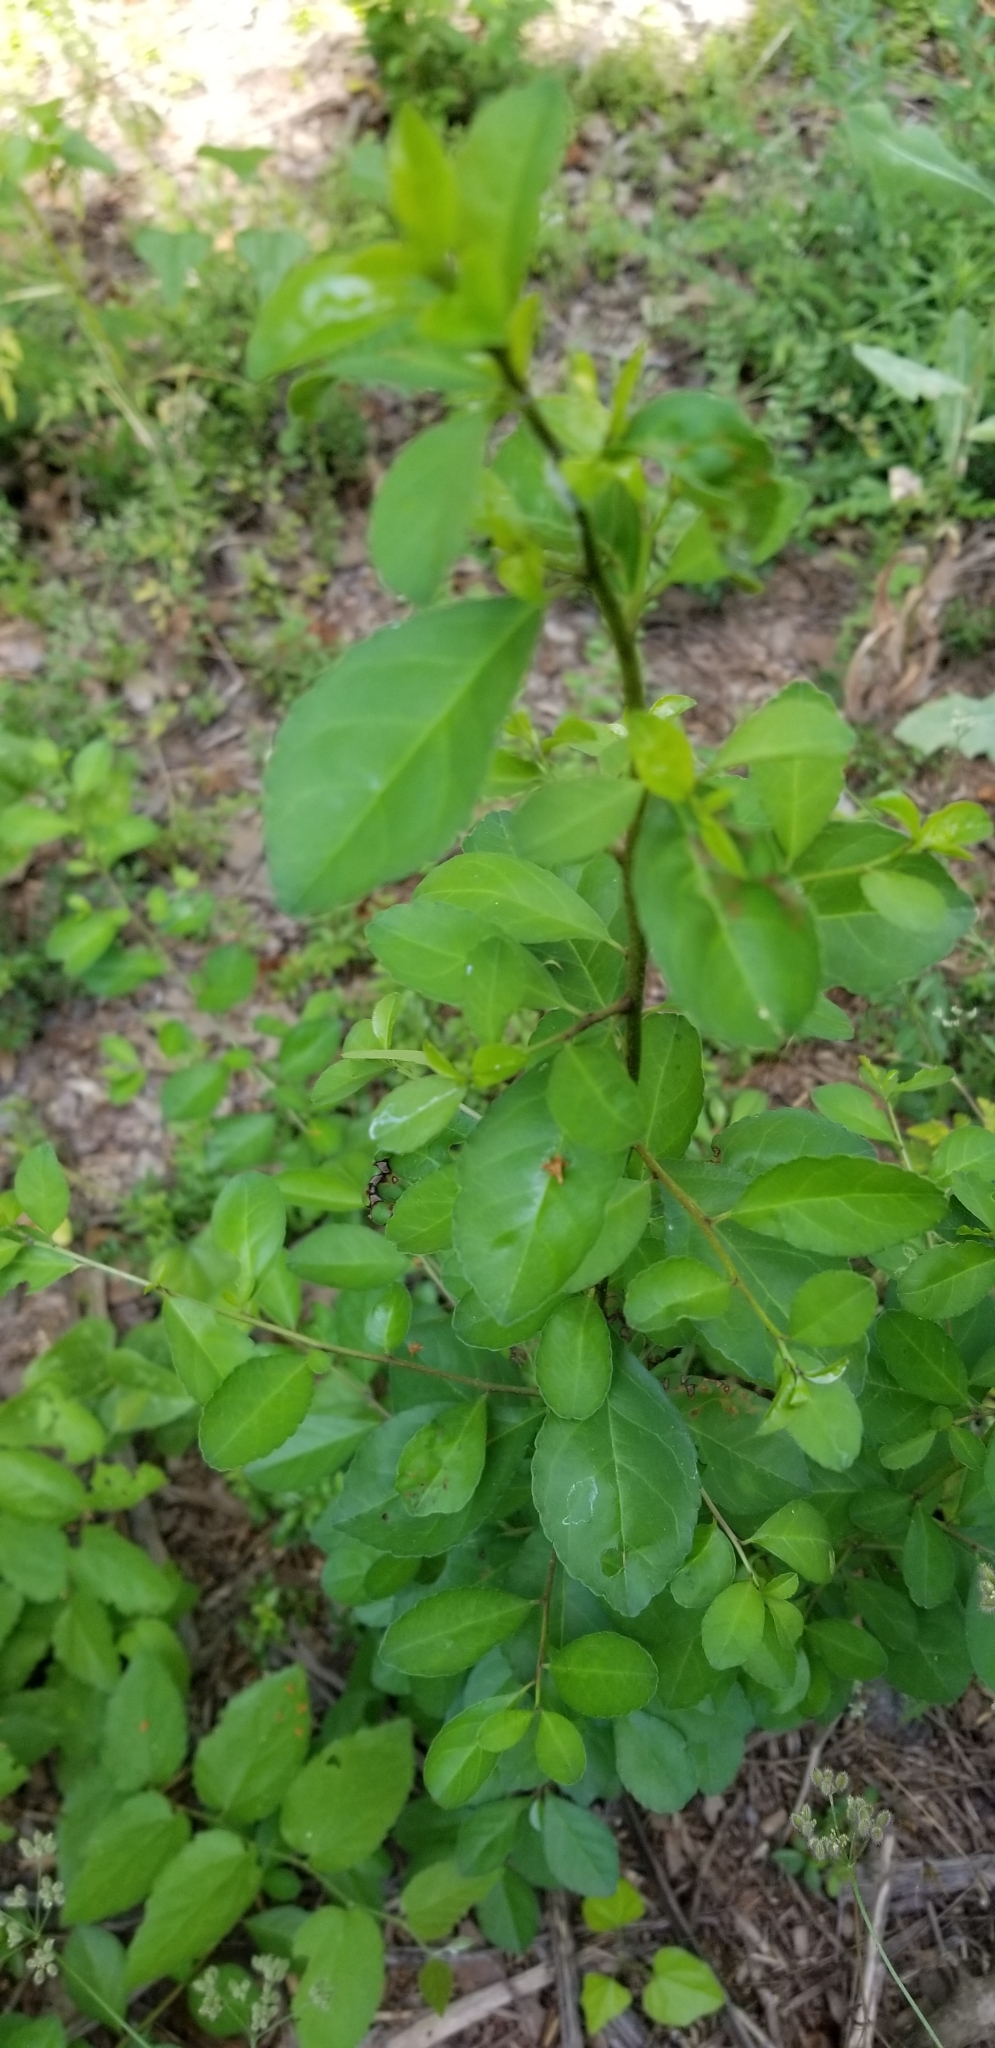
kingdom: Plantae
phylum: Tracheophyta
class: Magnoliopsida
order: Aquifoliales
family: Aquifoliaceae
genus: Ilex
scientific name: Ilex decidua
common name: Possum-haw
